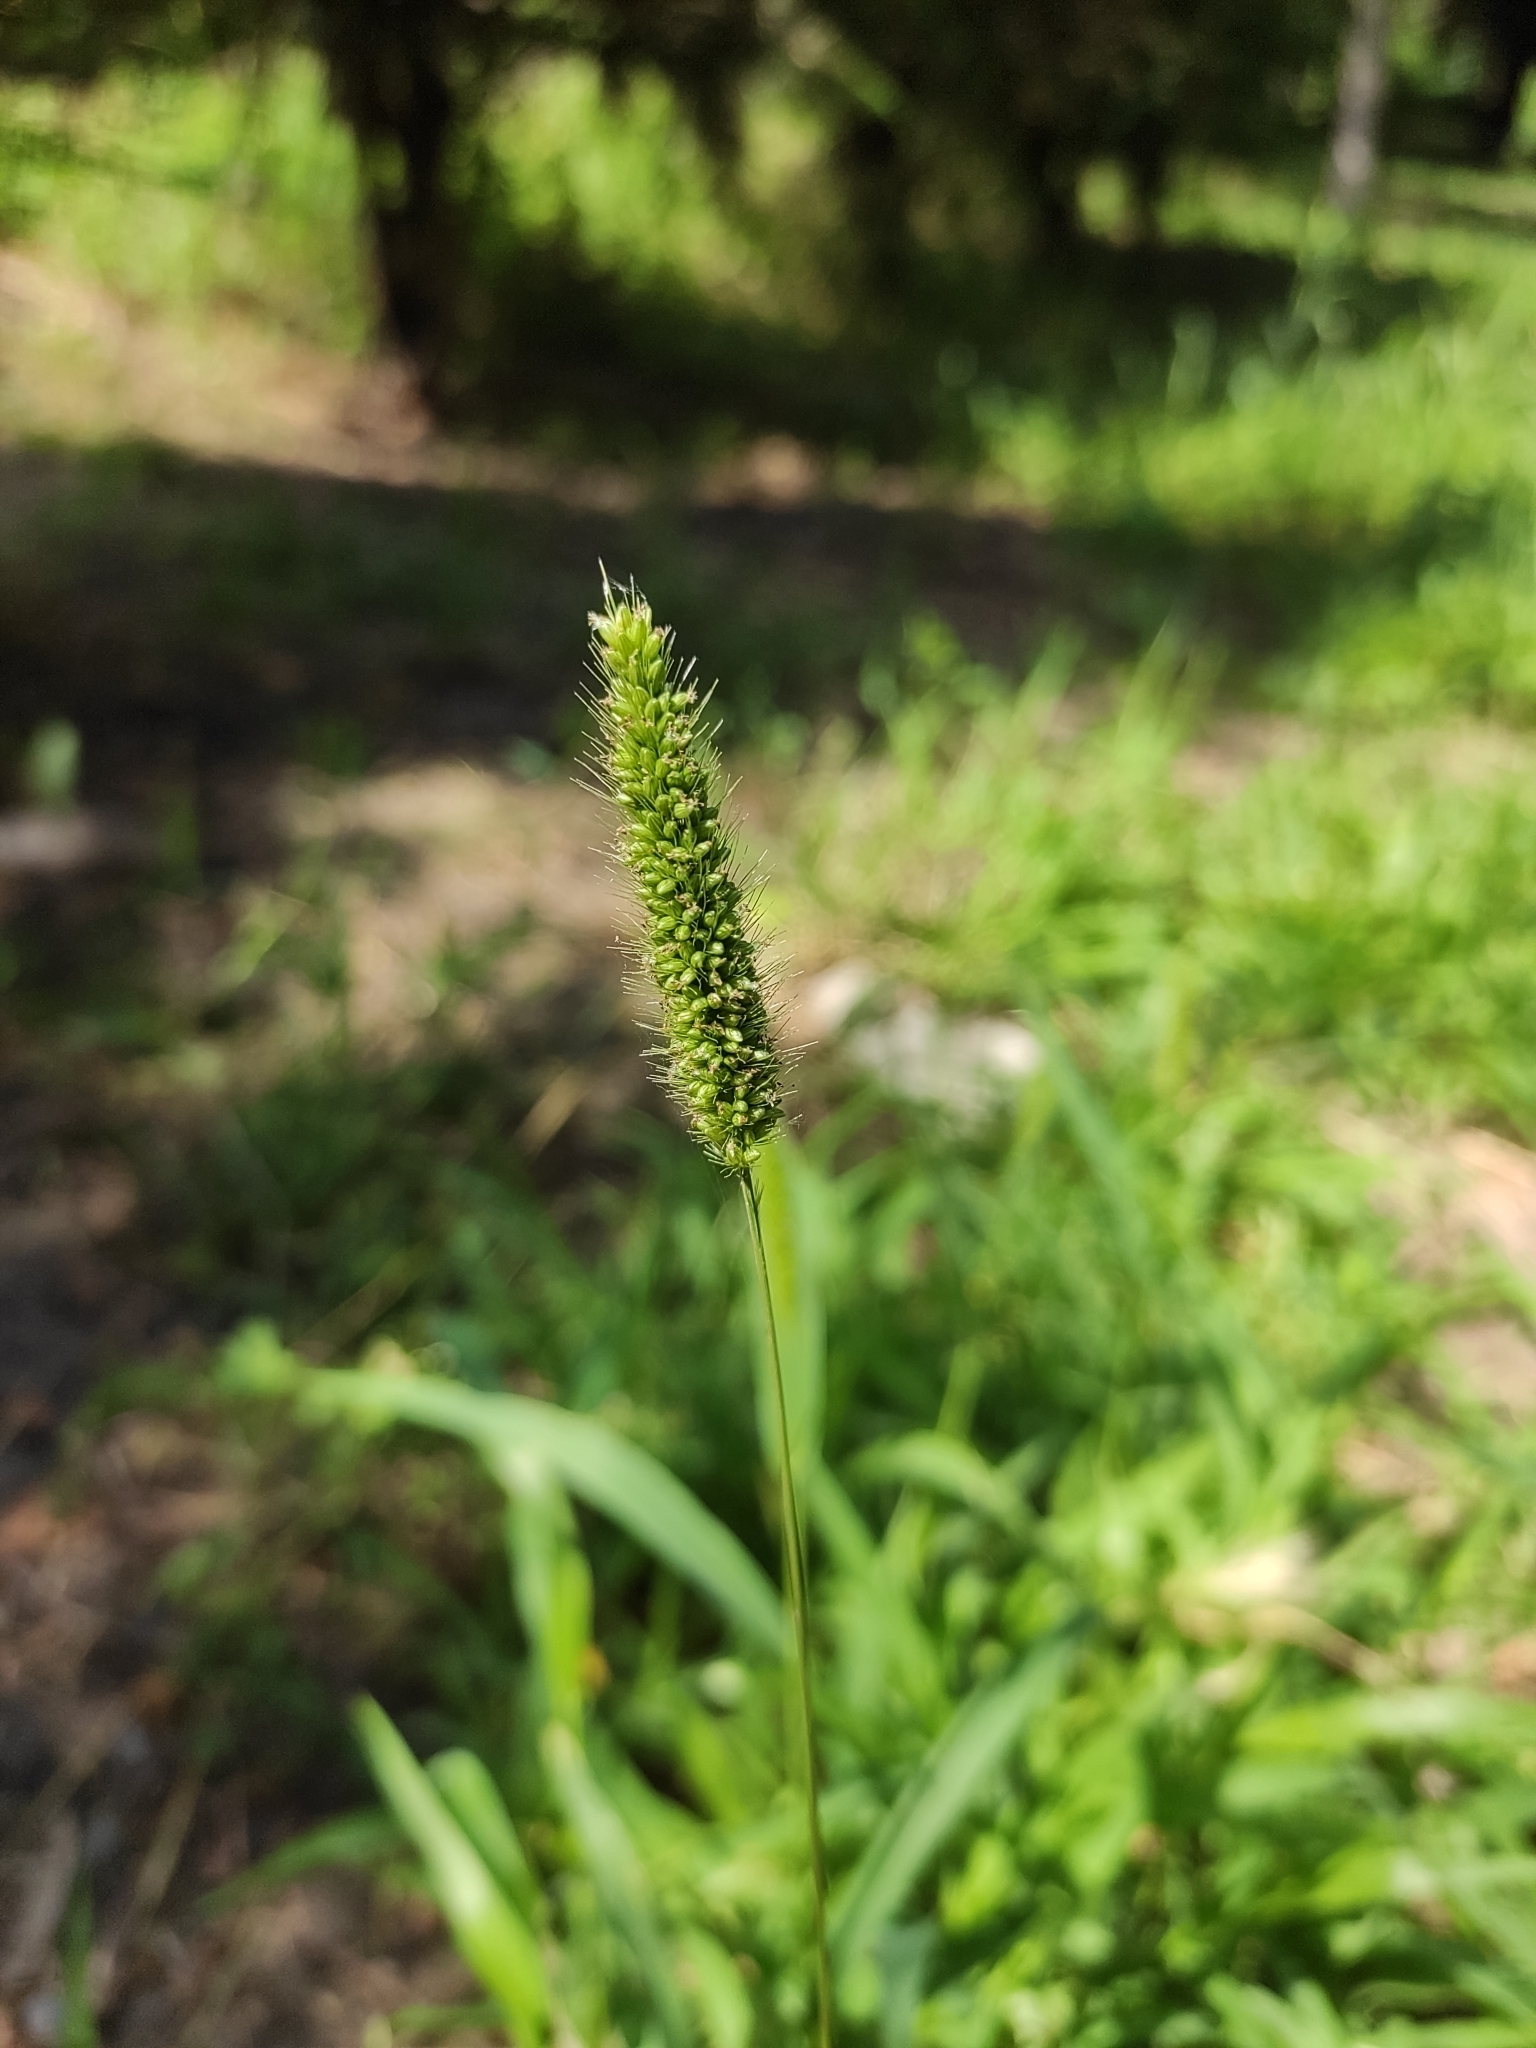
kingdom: Plantae
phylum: Tracheophyta
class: Liliopsida
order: Poales
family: Poaceae
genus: Setaria
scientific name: Setaria viridis
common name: Green bristlegrass
